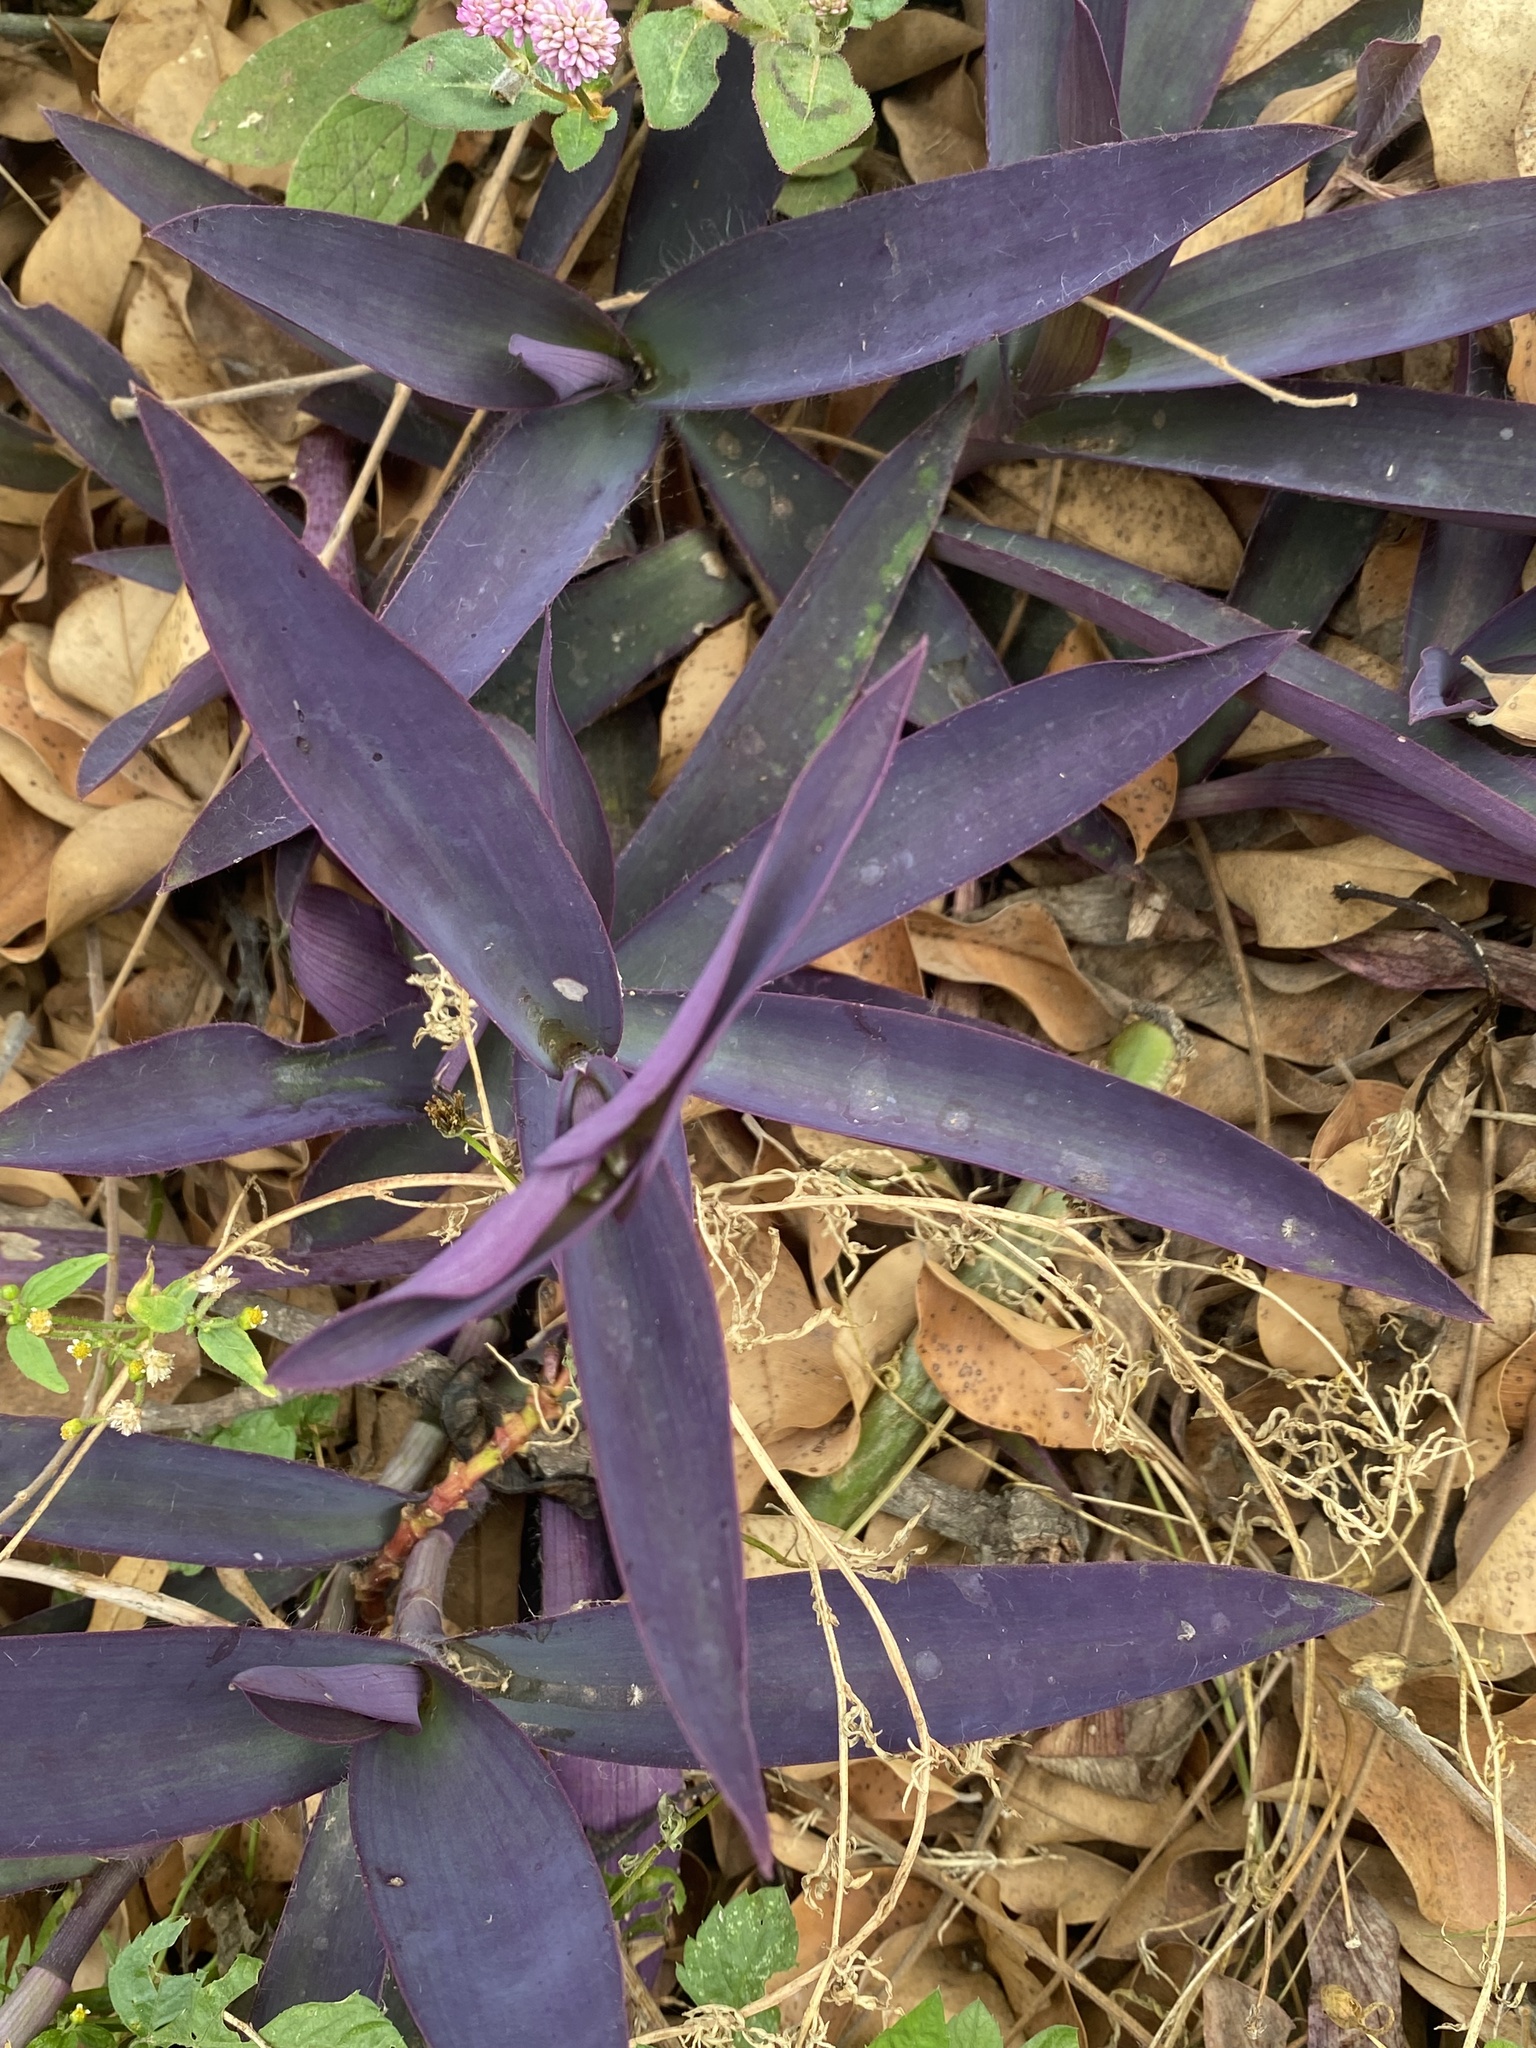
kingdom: Plantae
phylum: Tracheophyta
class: Liliopsida
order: Commelinales
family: Commelinaceae
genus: Tradescantia
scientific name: Tradescantia pallida
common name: Purpleheart
